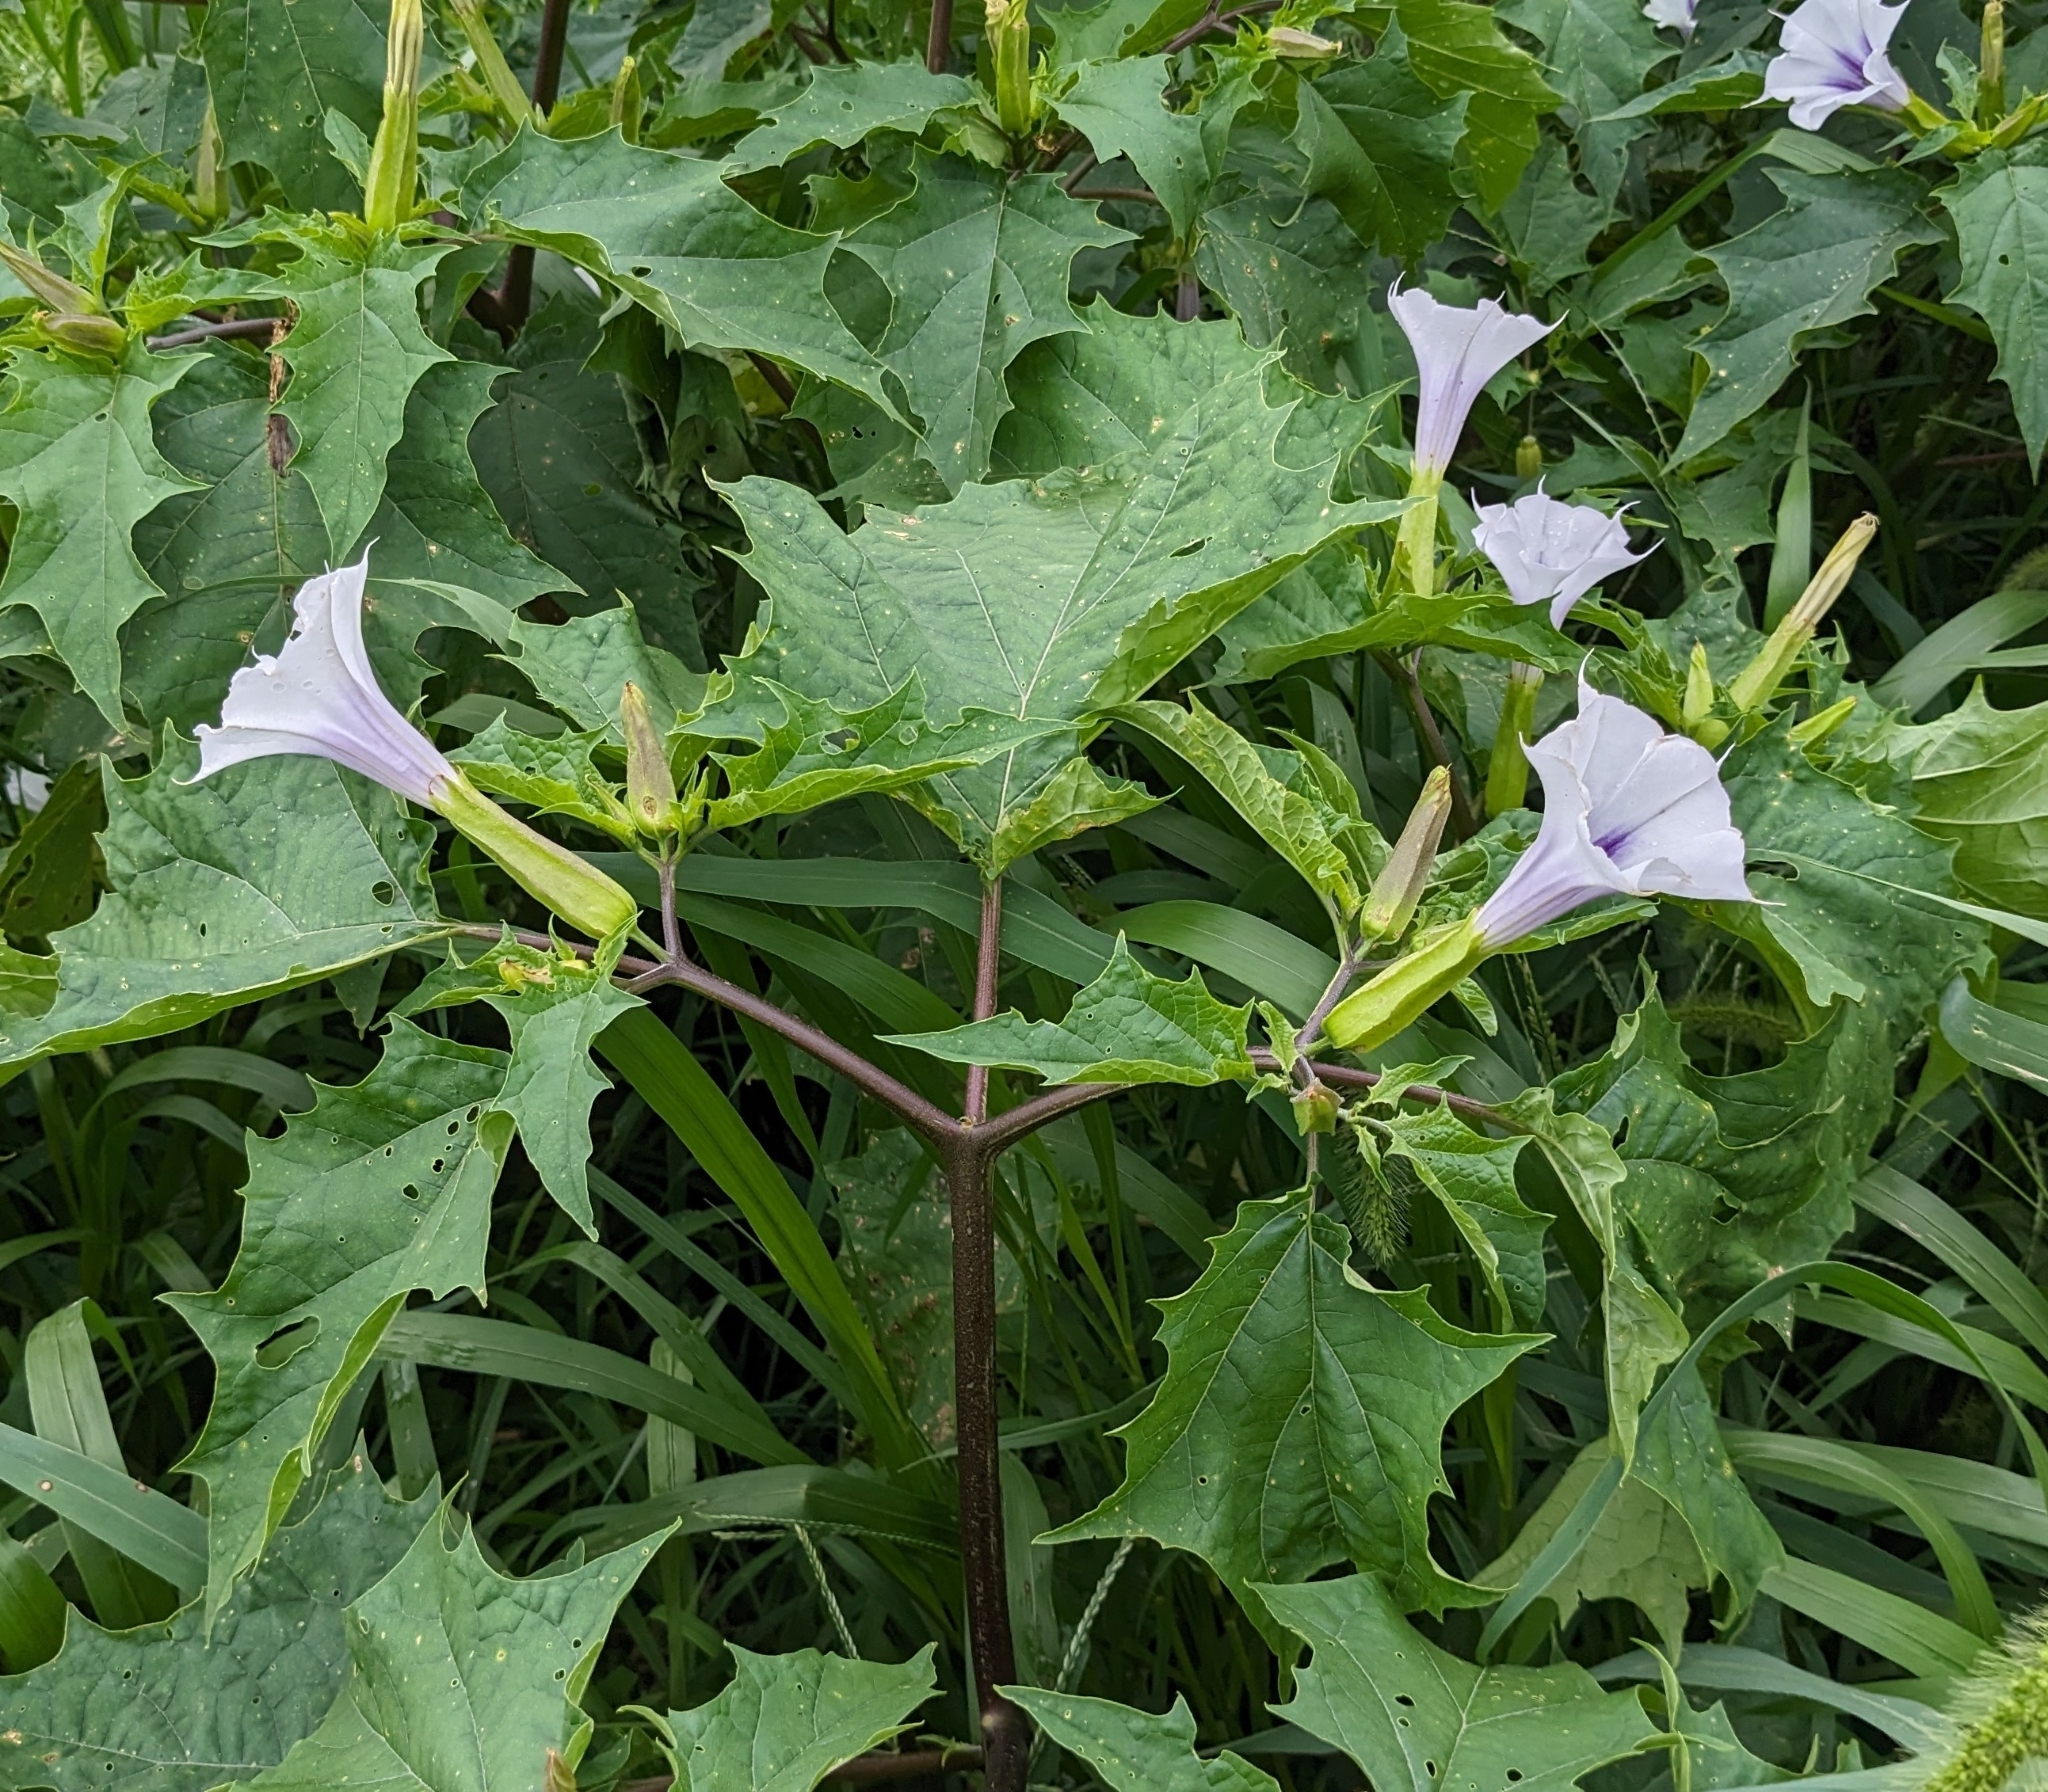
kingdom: Plantae
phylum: Tracheophyta
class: Magnoliopsida
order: Solanales
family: Solanaceae
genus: Datura
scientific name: Datura stramonium
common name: Thorn-apple
